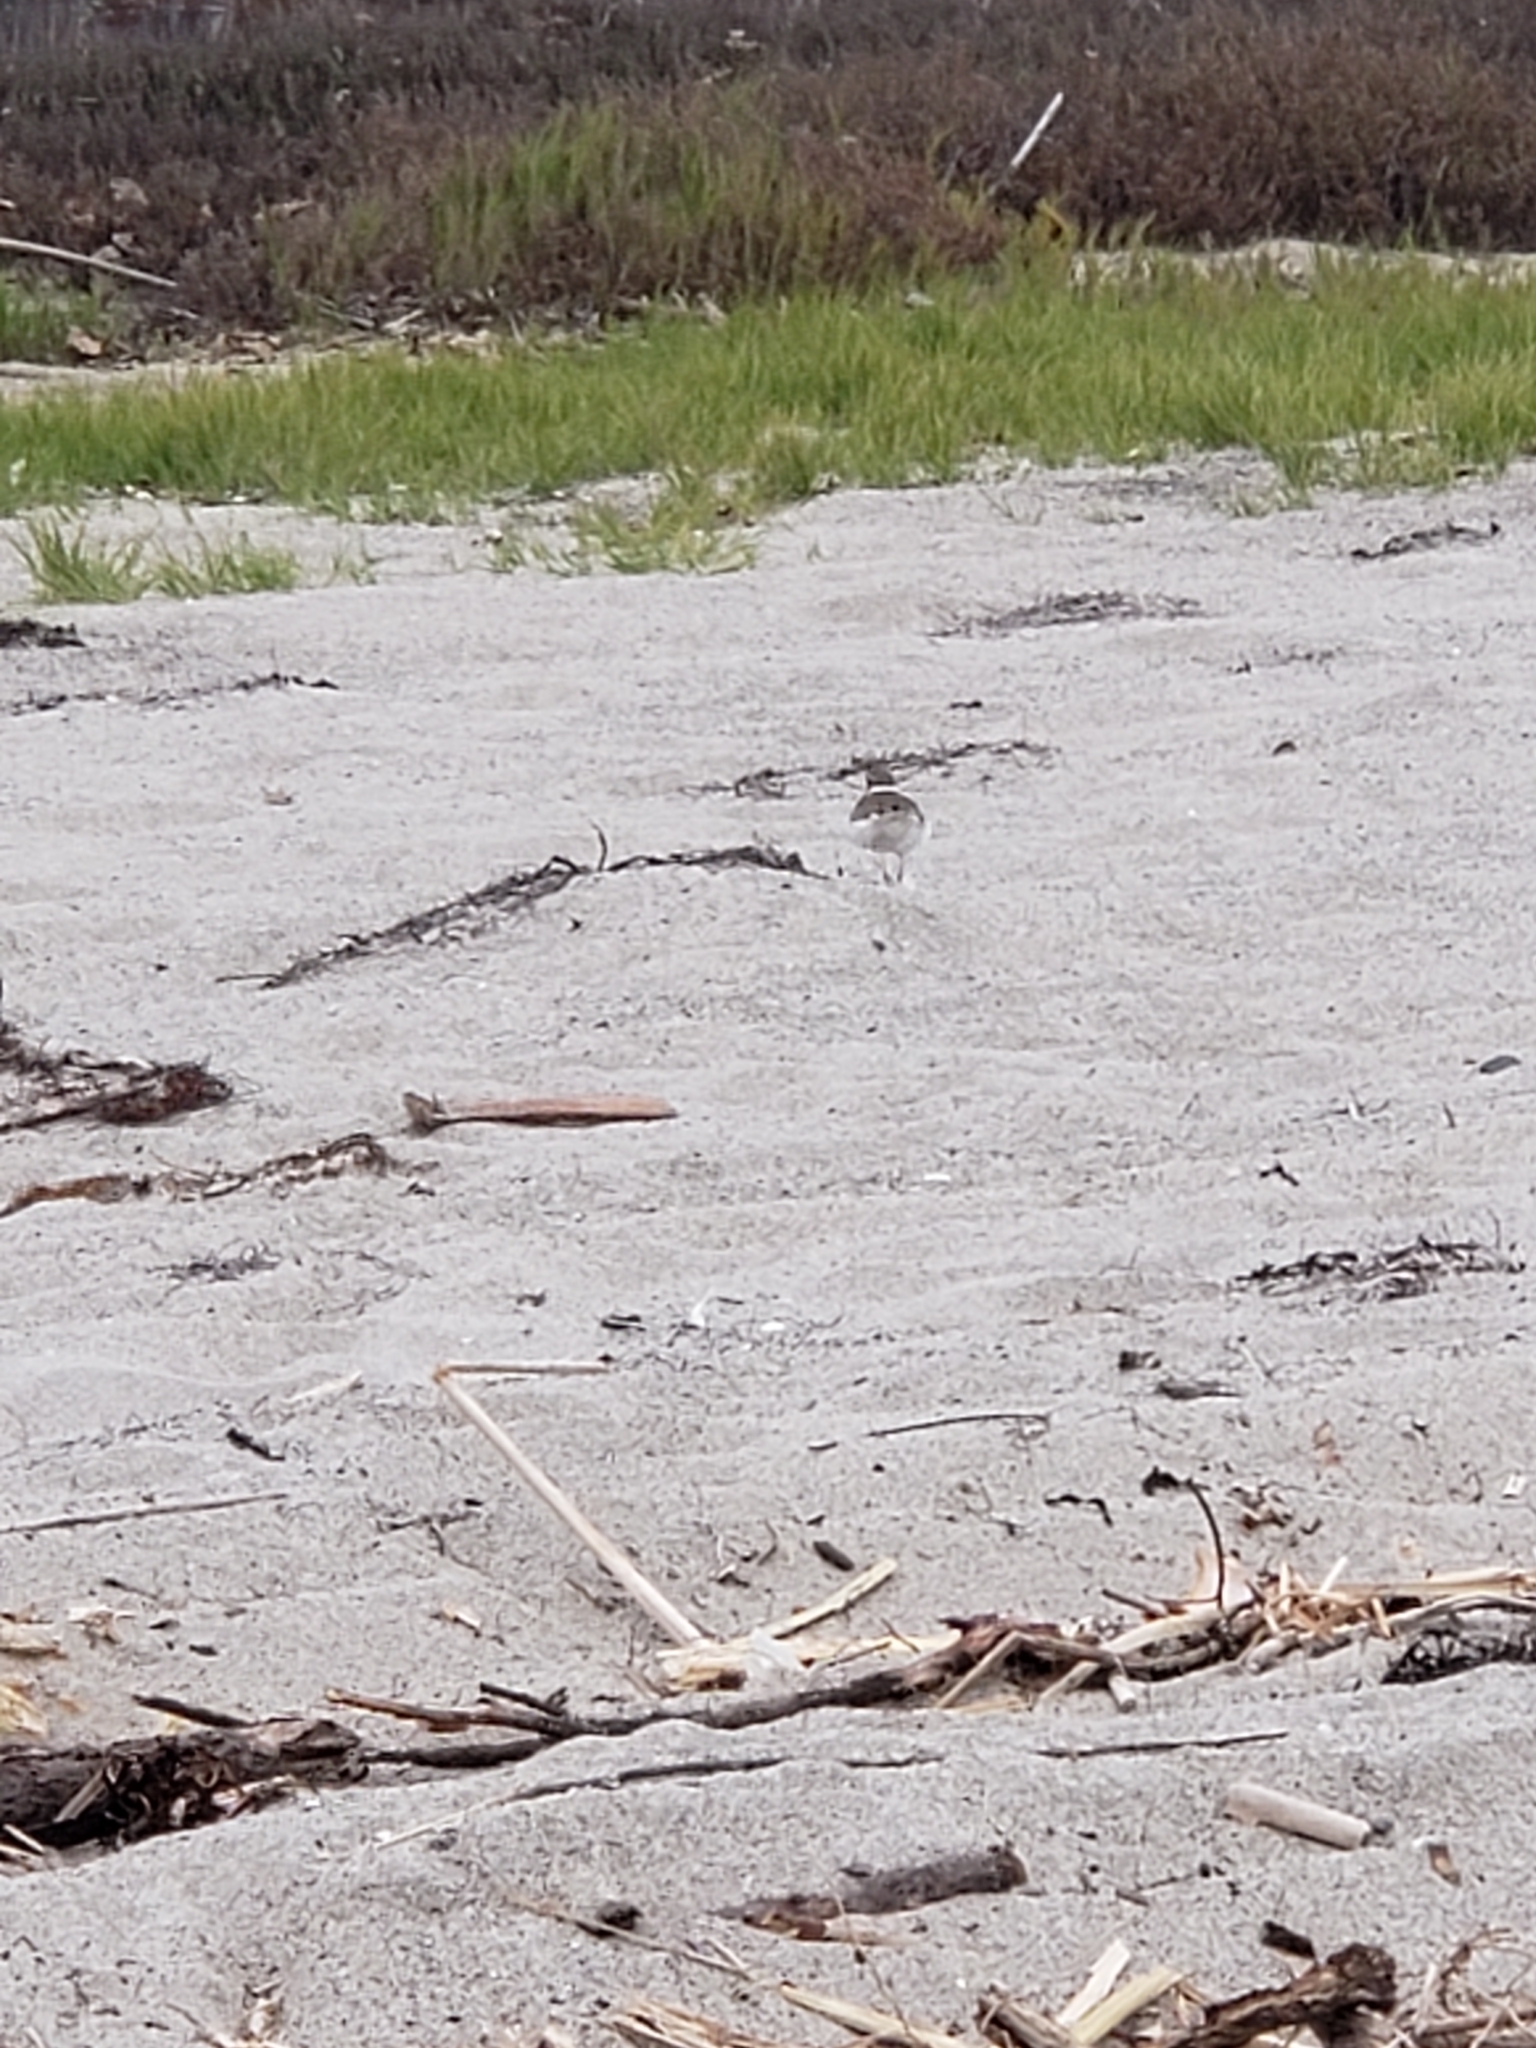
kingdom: Animalia
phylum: Chordata
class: Aves
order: Charadriiformes
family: Charadriidae
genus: Charadrius
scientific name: Charadrius vociferus
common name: Killdeer
